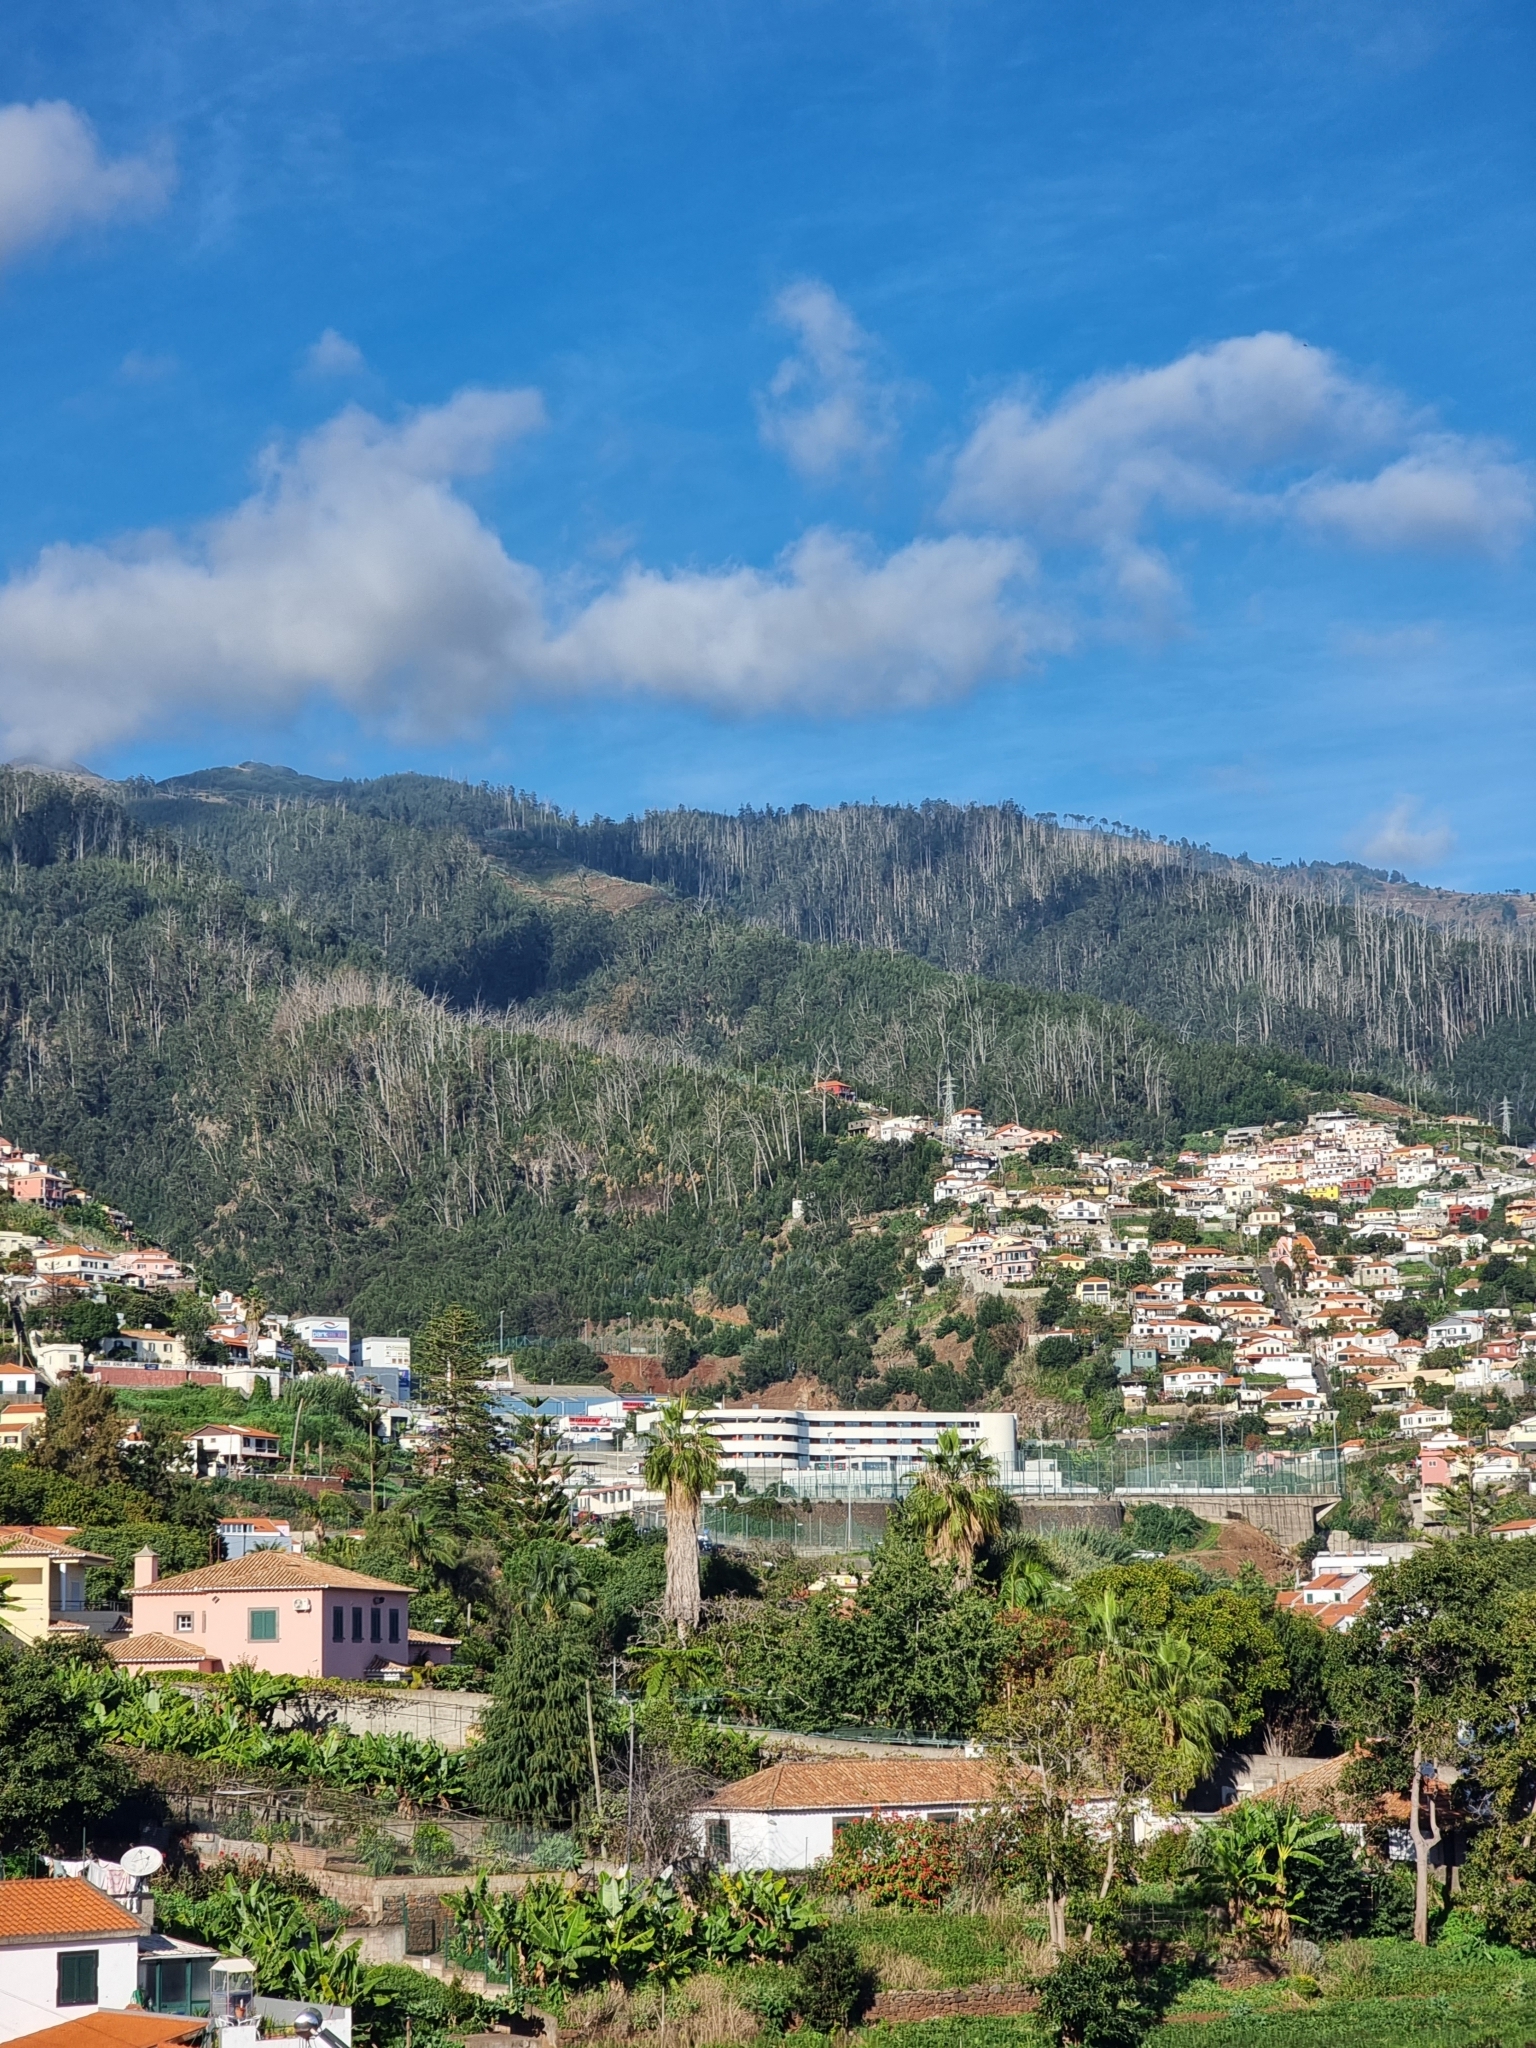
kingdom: Plantae
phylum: Tracheophyta
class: Magnoliopsida
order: Myrtales
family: Myrtaceae
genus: Eucalyptus
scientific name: Eucalyptus globulus
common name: Southern blue-gum
